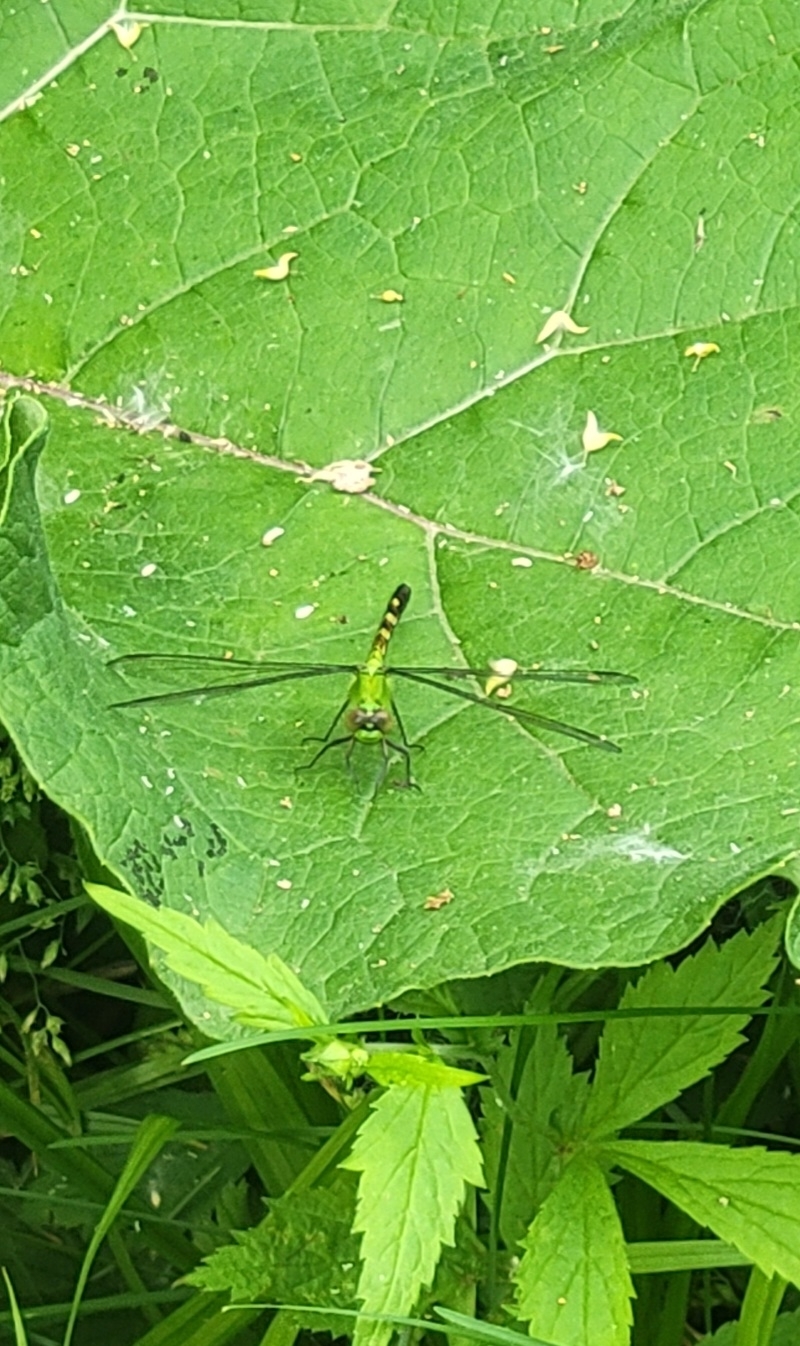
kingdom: Animalia
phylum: Arthropoda
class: Insecta
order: Odonata
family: Libellulidae
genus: Erythemis
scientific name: Erythemis simplicicollis
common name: Eastern pondhawk
